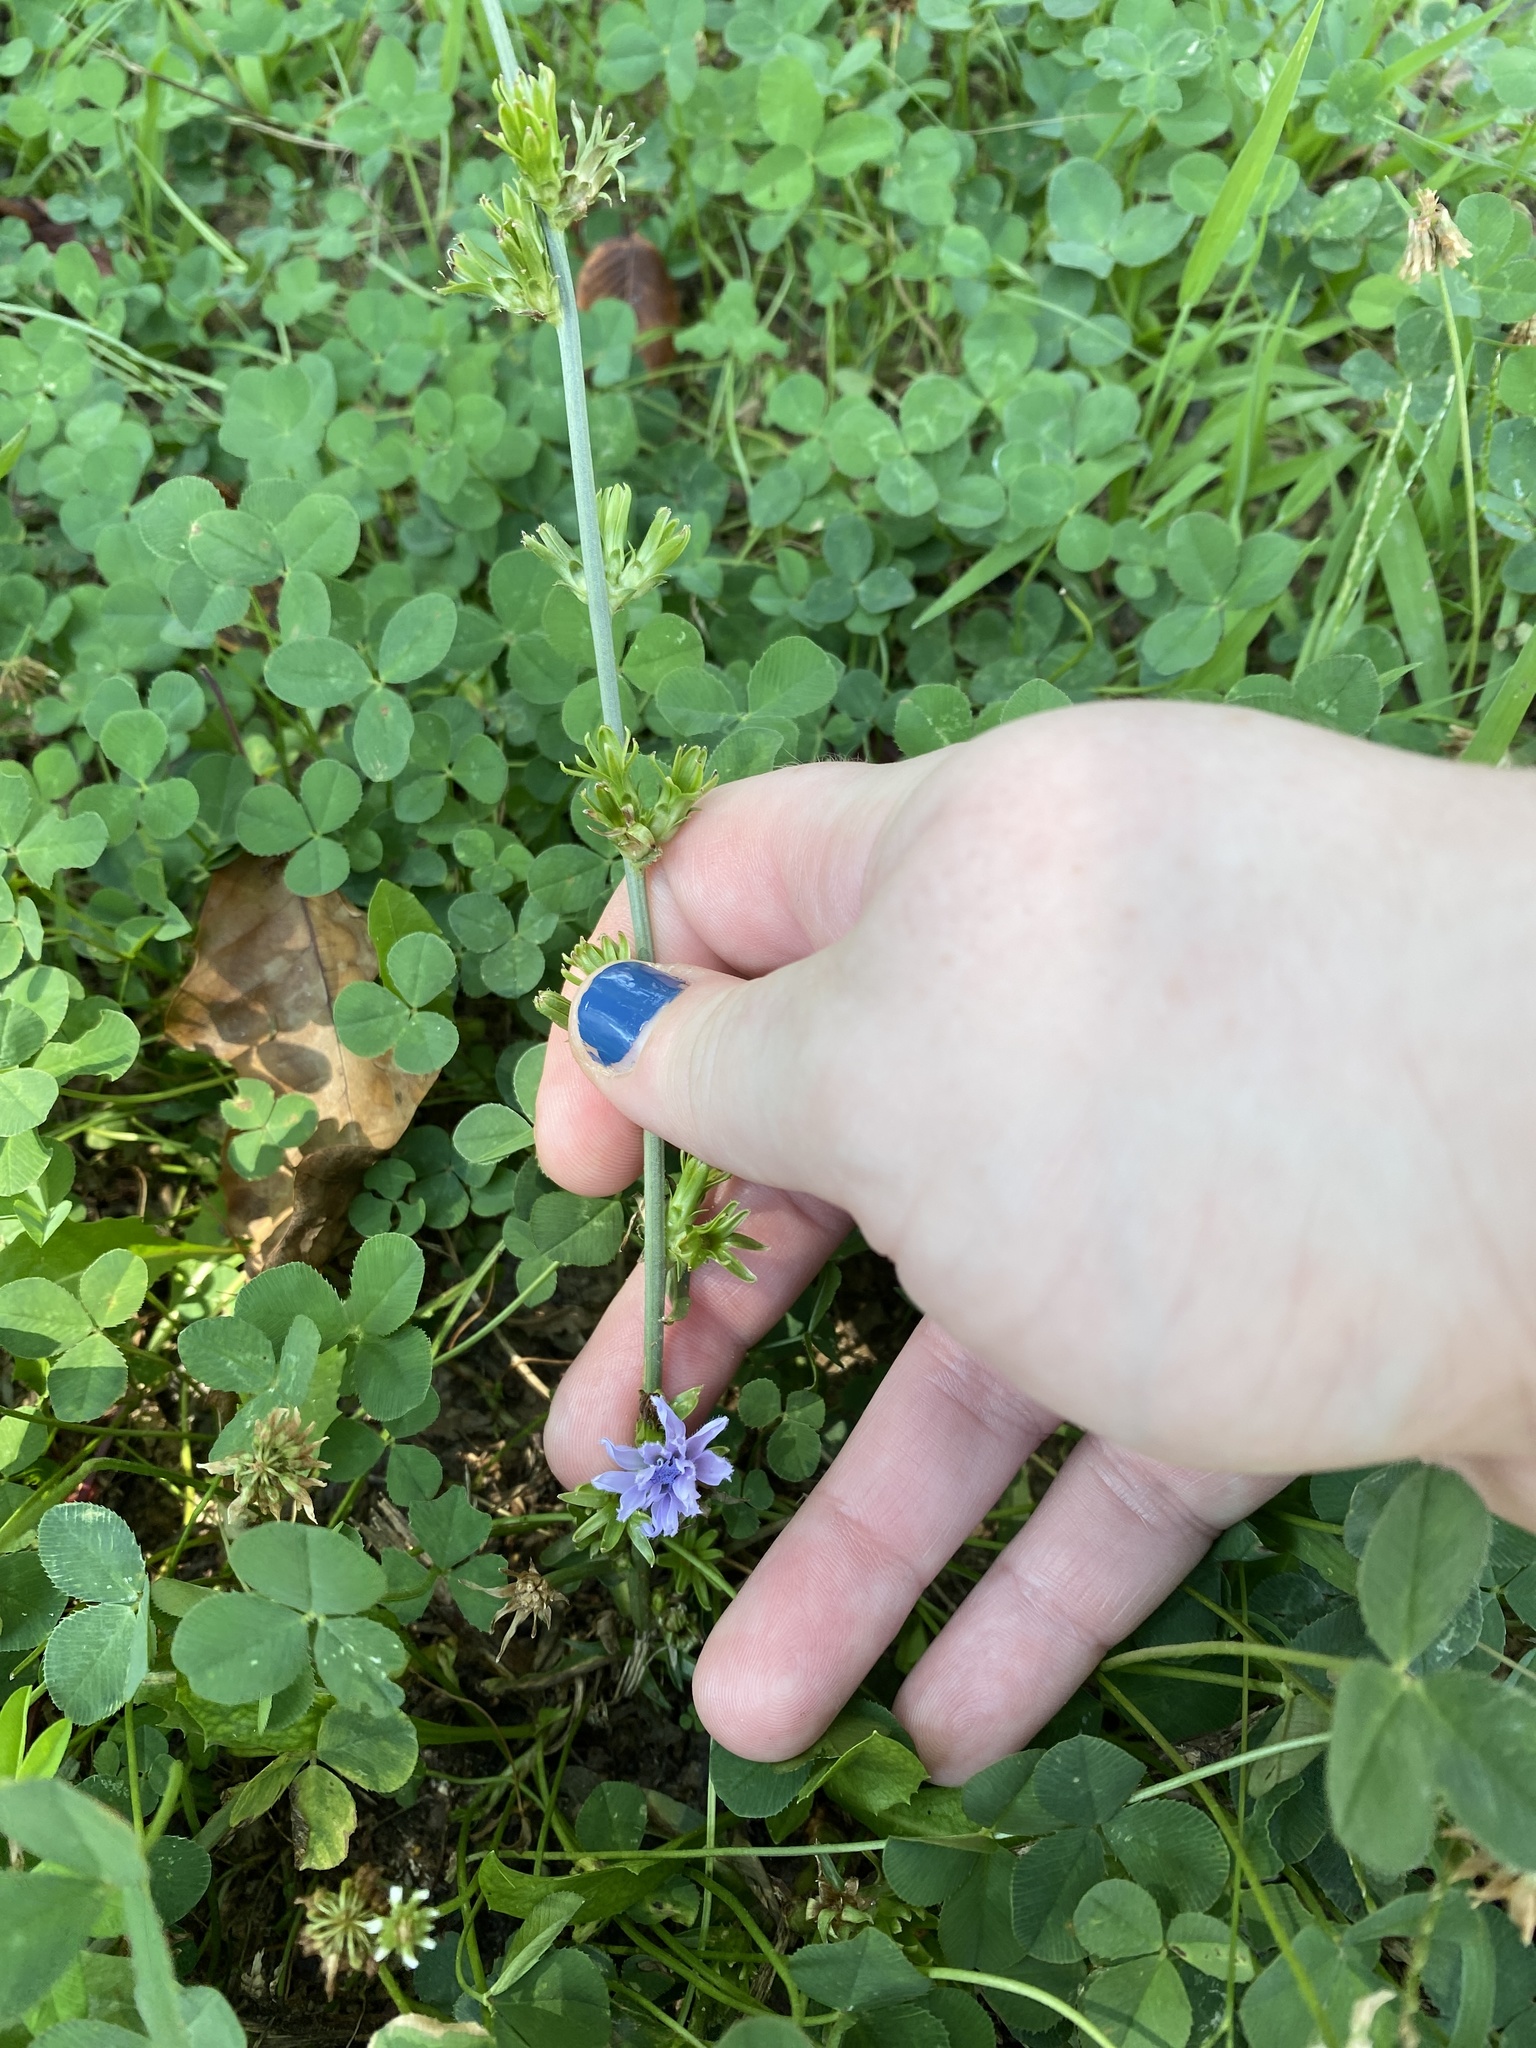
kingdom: Plantae
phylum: Tracheophyta
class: Magnoliopsida
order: Asterales
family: Asteraceae
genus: Cichorium
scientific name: Cichorium intybus
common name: Chicory
